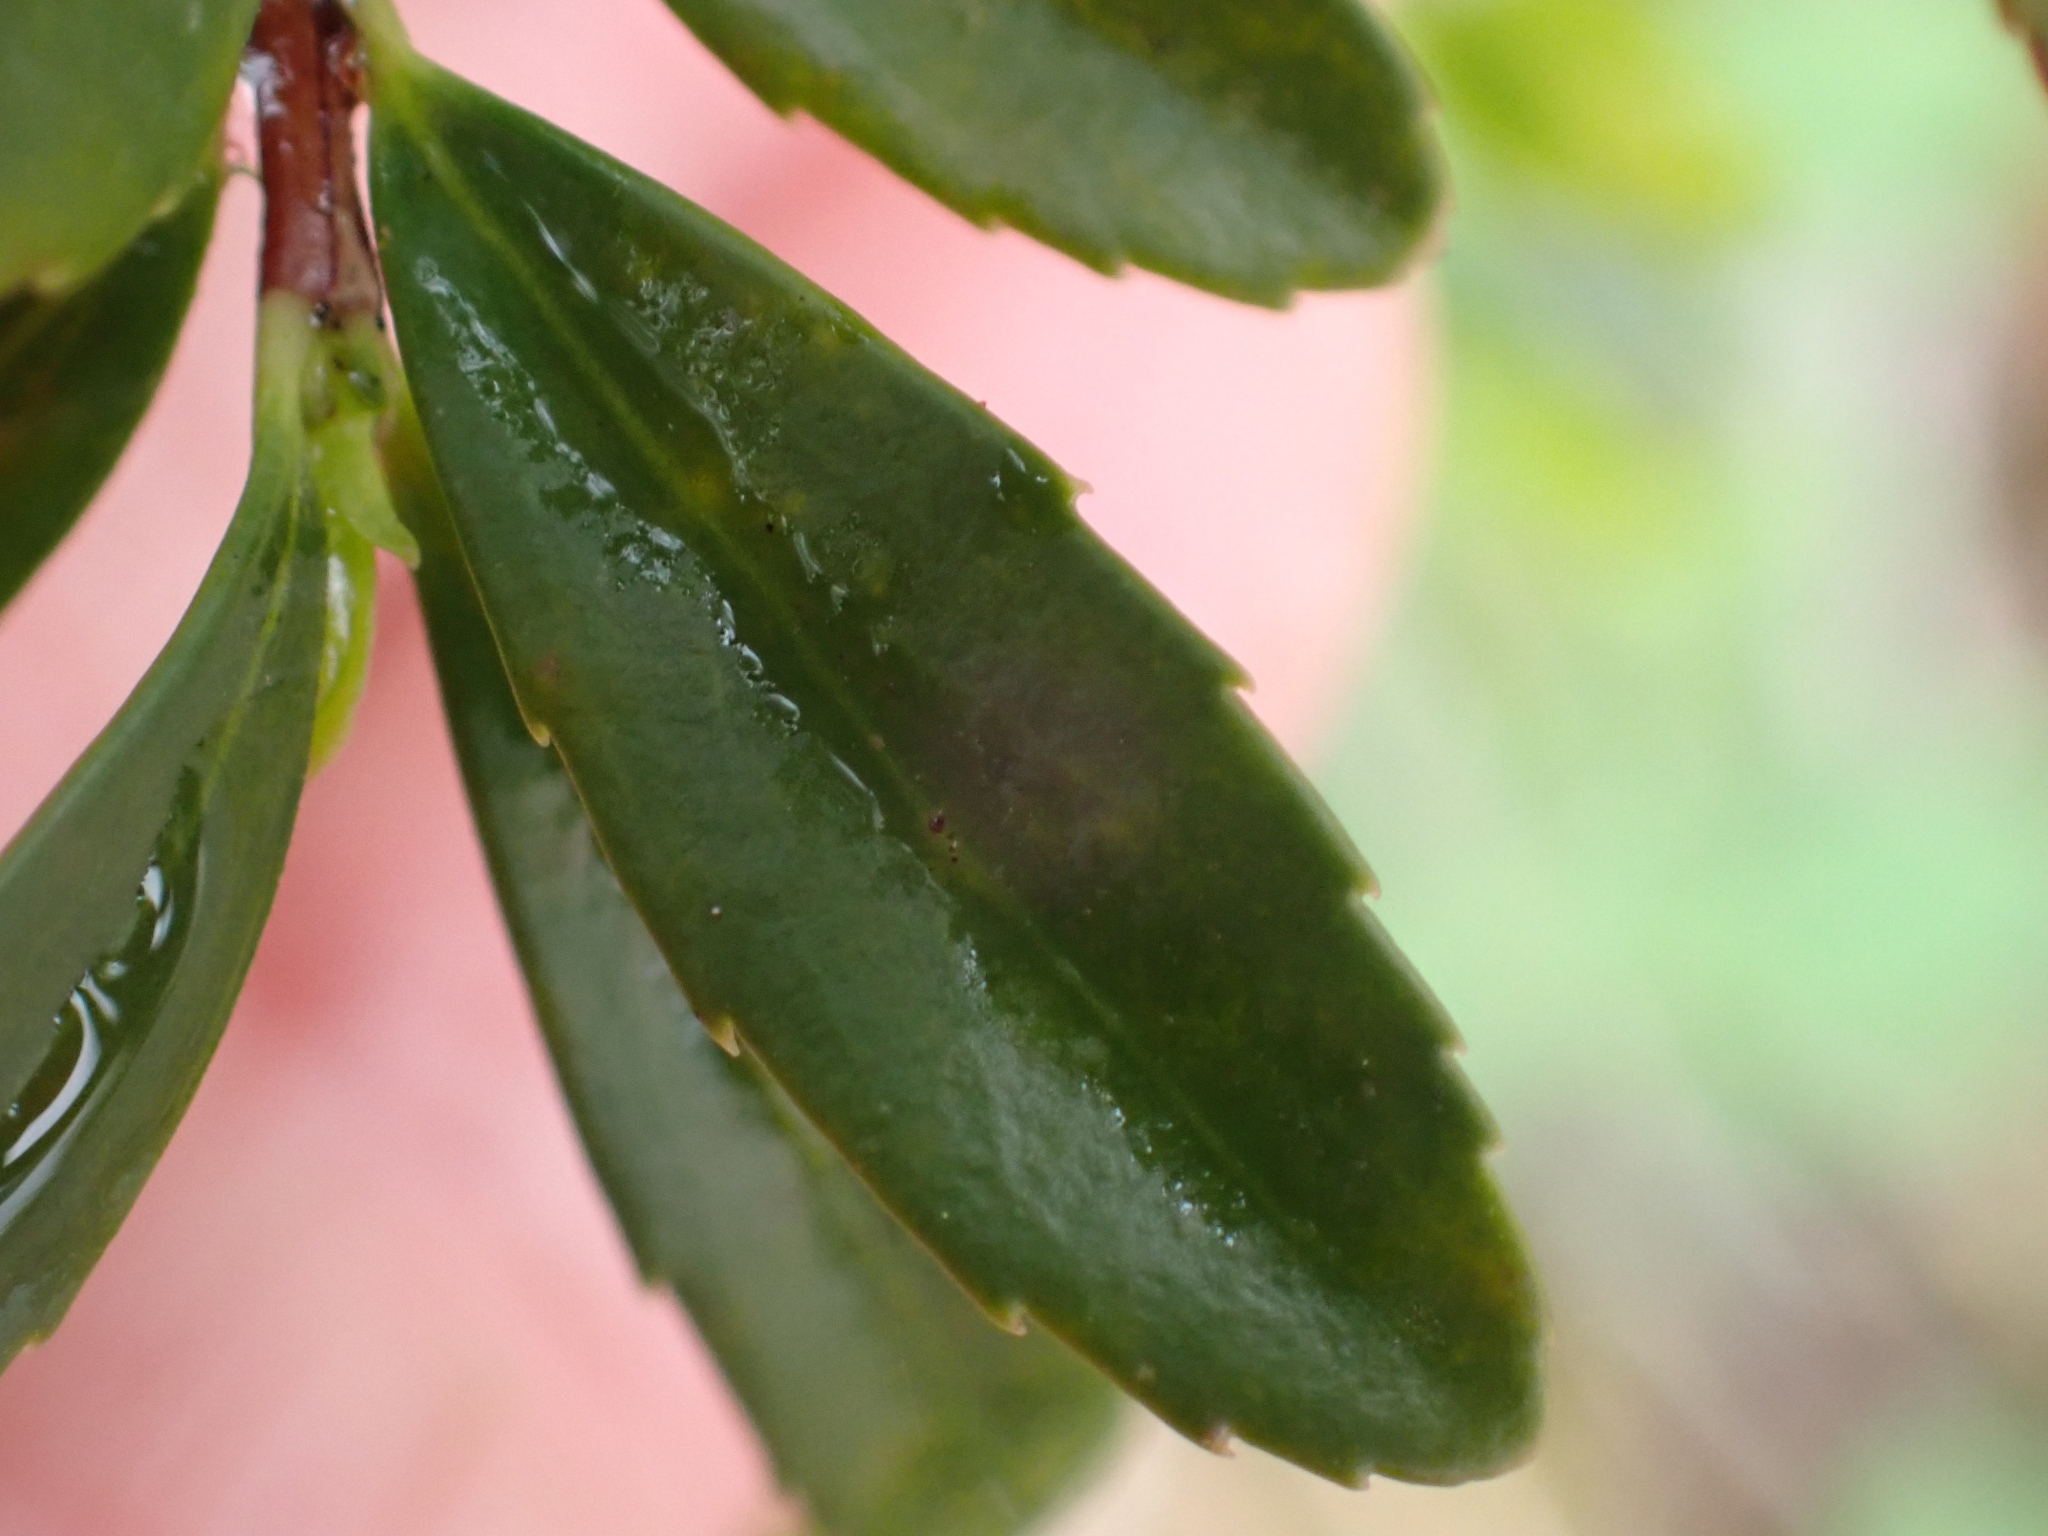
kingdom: Plantae
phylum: Tracheophyta
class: Magnoliopsida
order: Celastrales
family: Celastraceae
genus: Paxistima
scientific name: Paxistima myrsinites
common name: Mountain-lover
